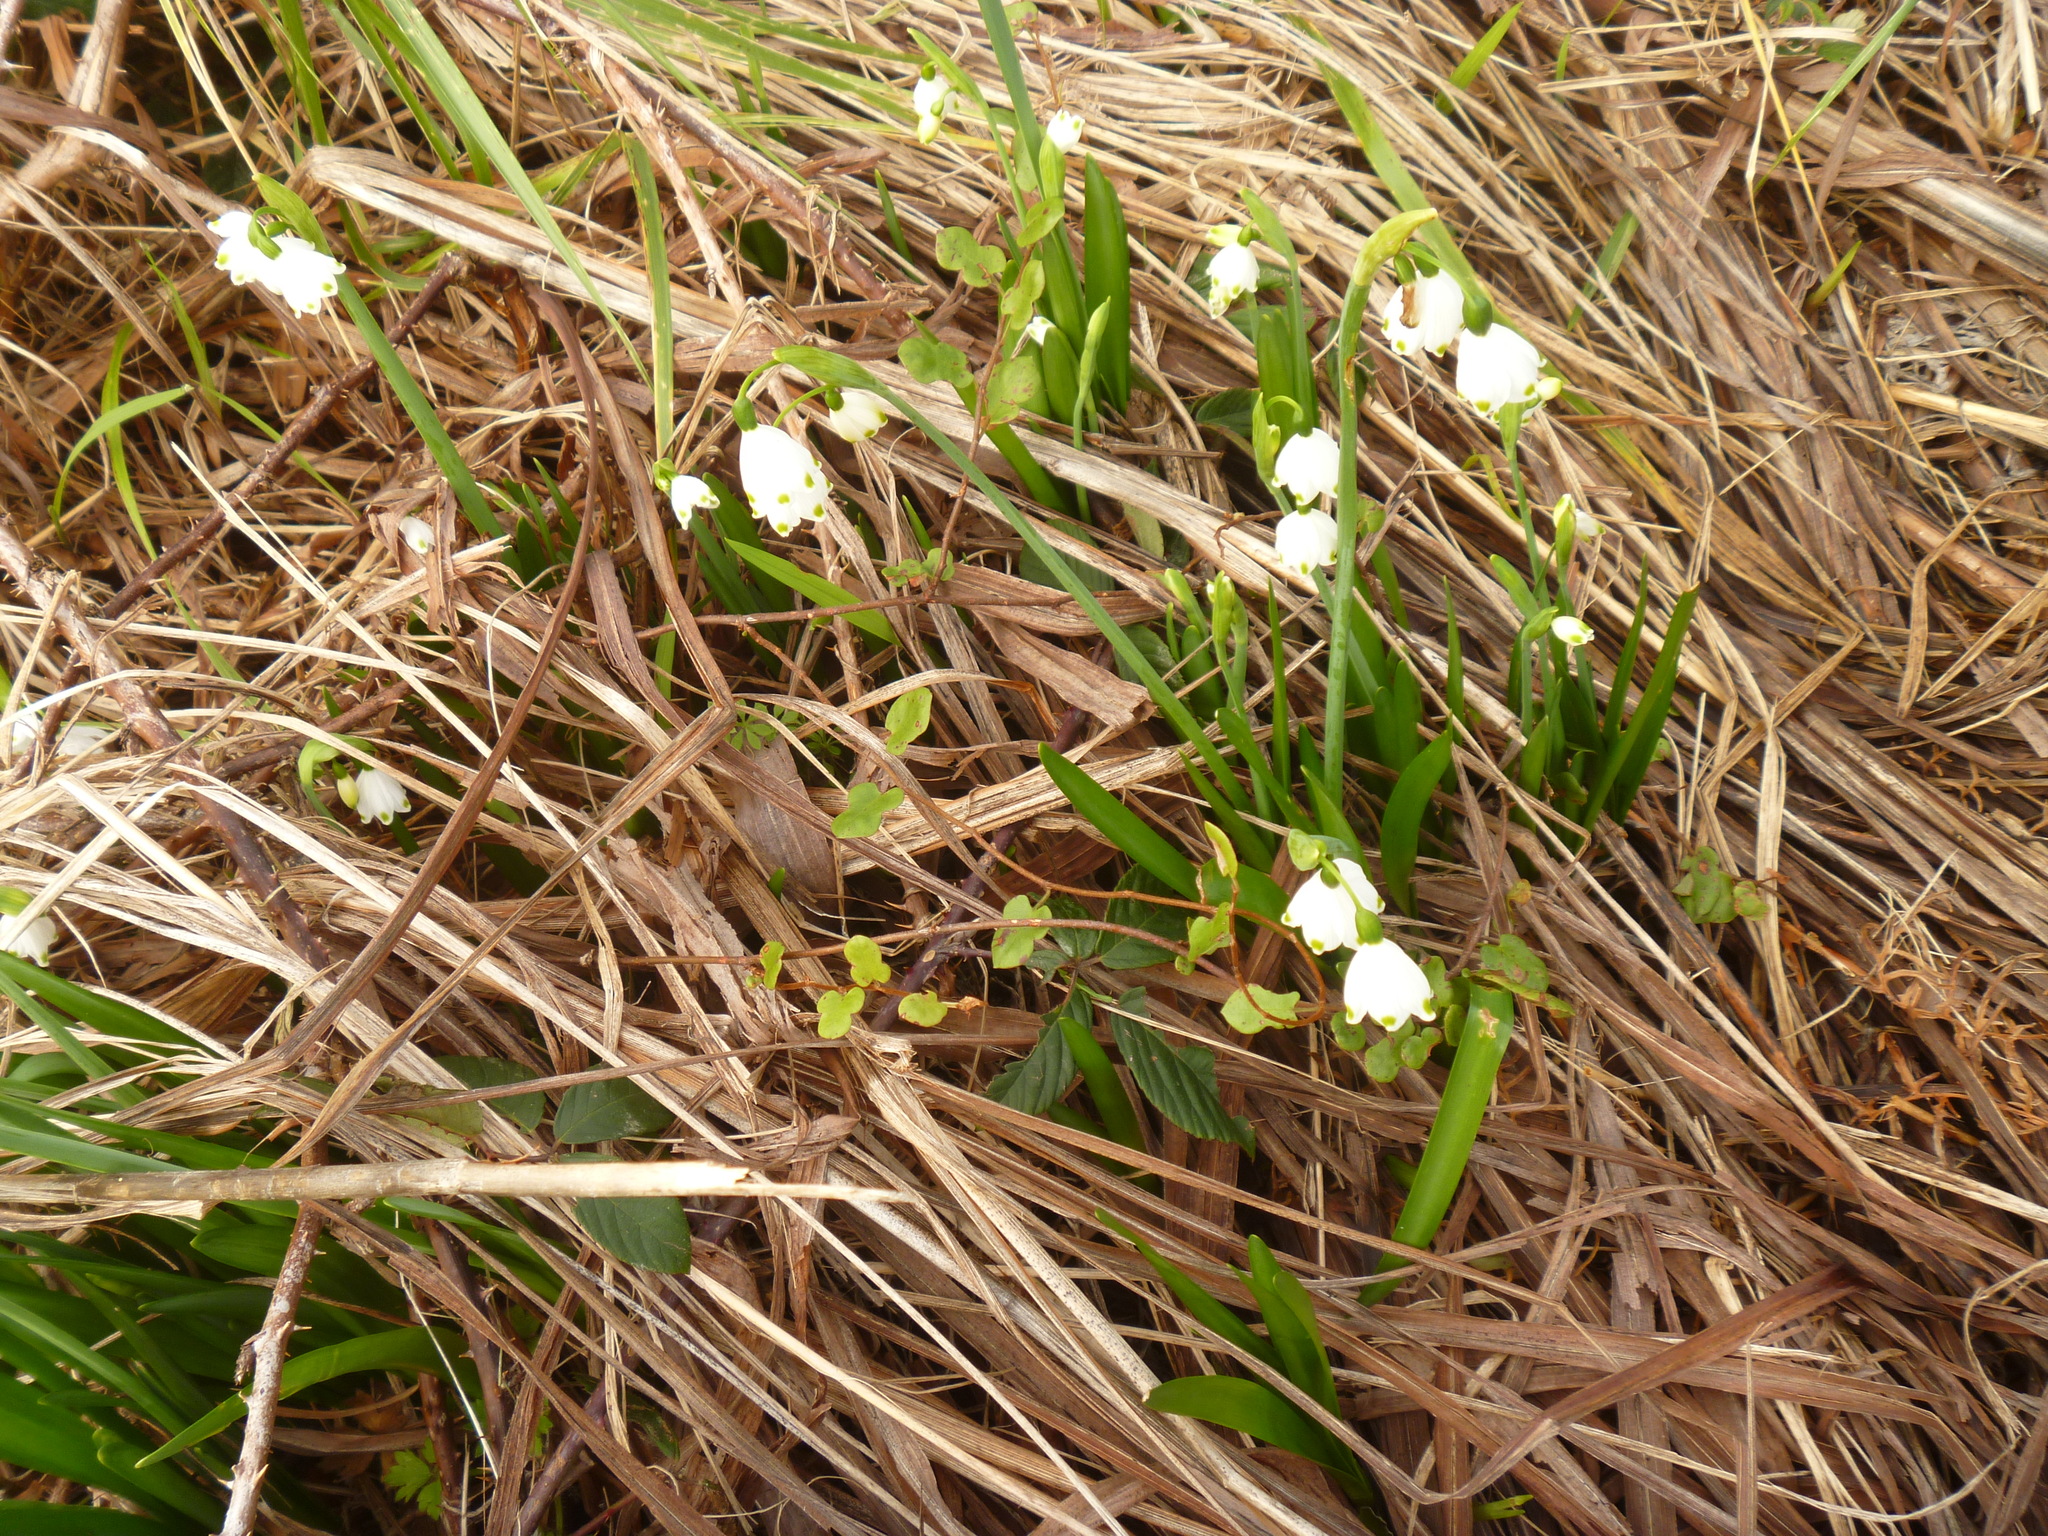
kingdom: Plantae
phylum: Tracheophyta
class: Liliopsida
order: Asparagales
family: Amaryllidaceae
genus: Leucojum
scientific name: Leucojum aestivum
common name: Summer snowflake
